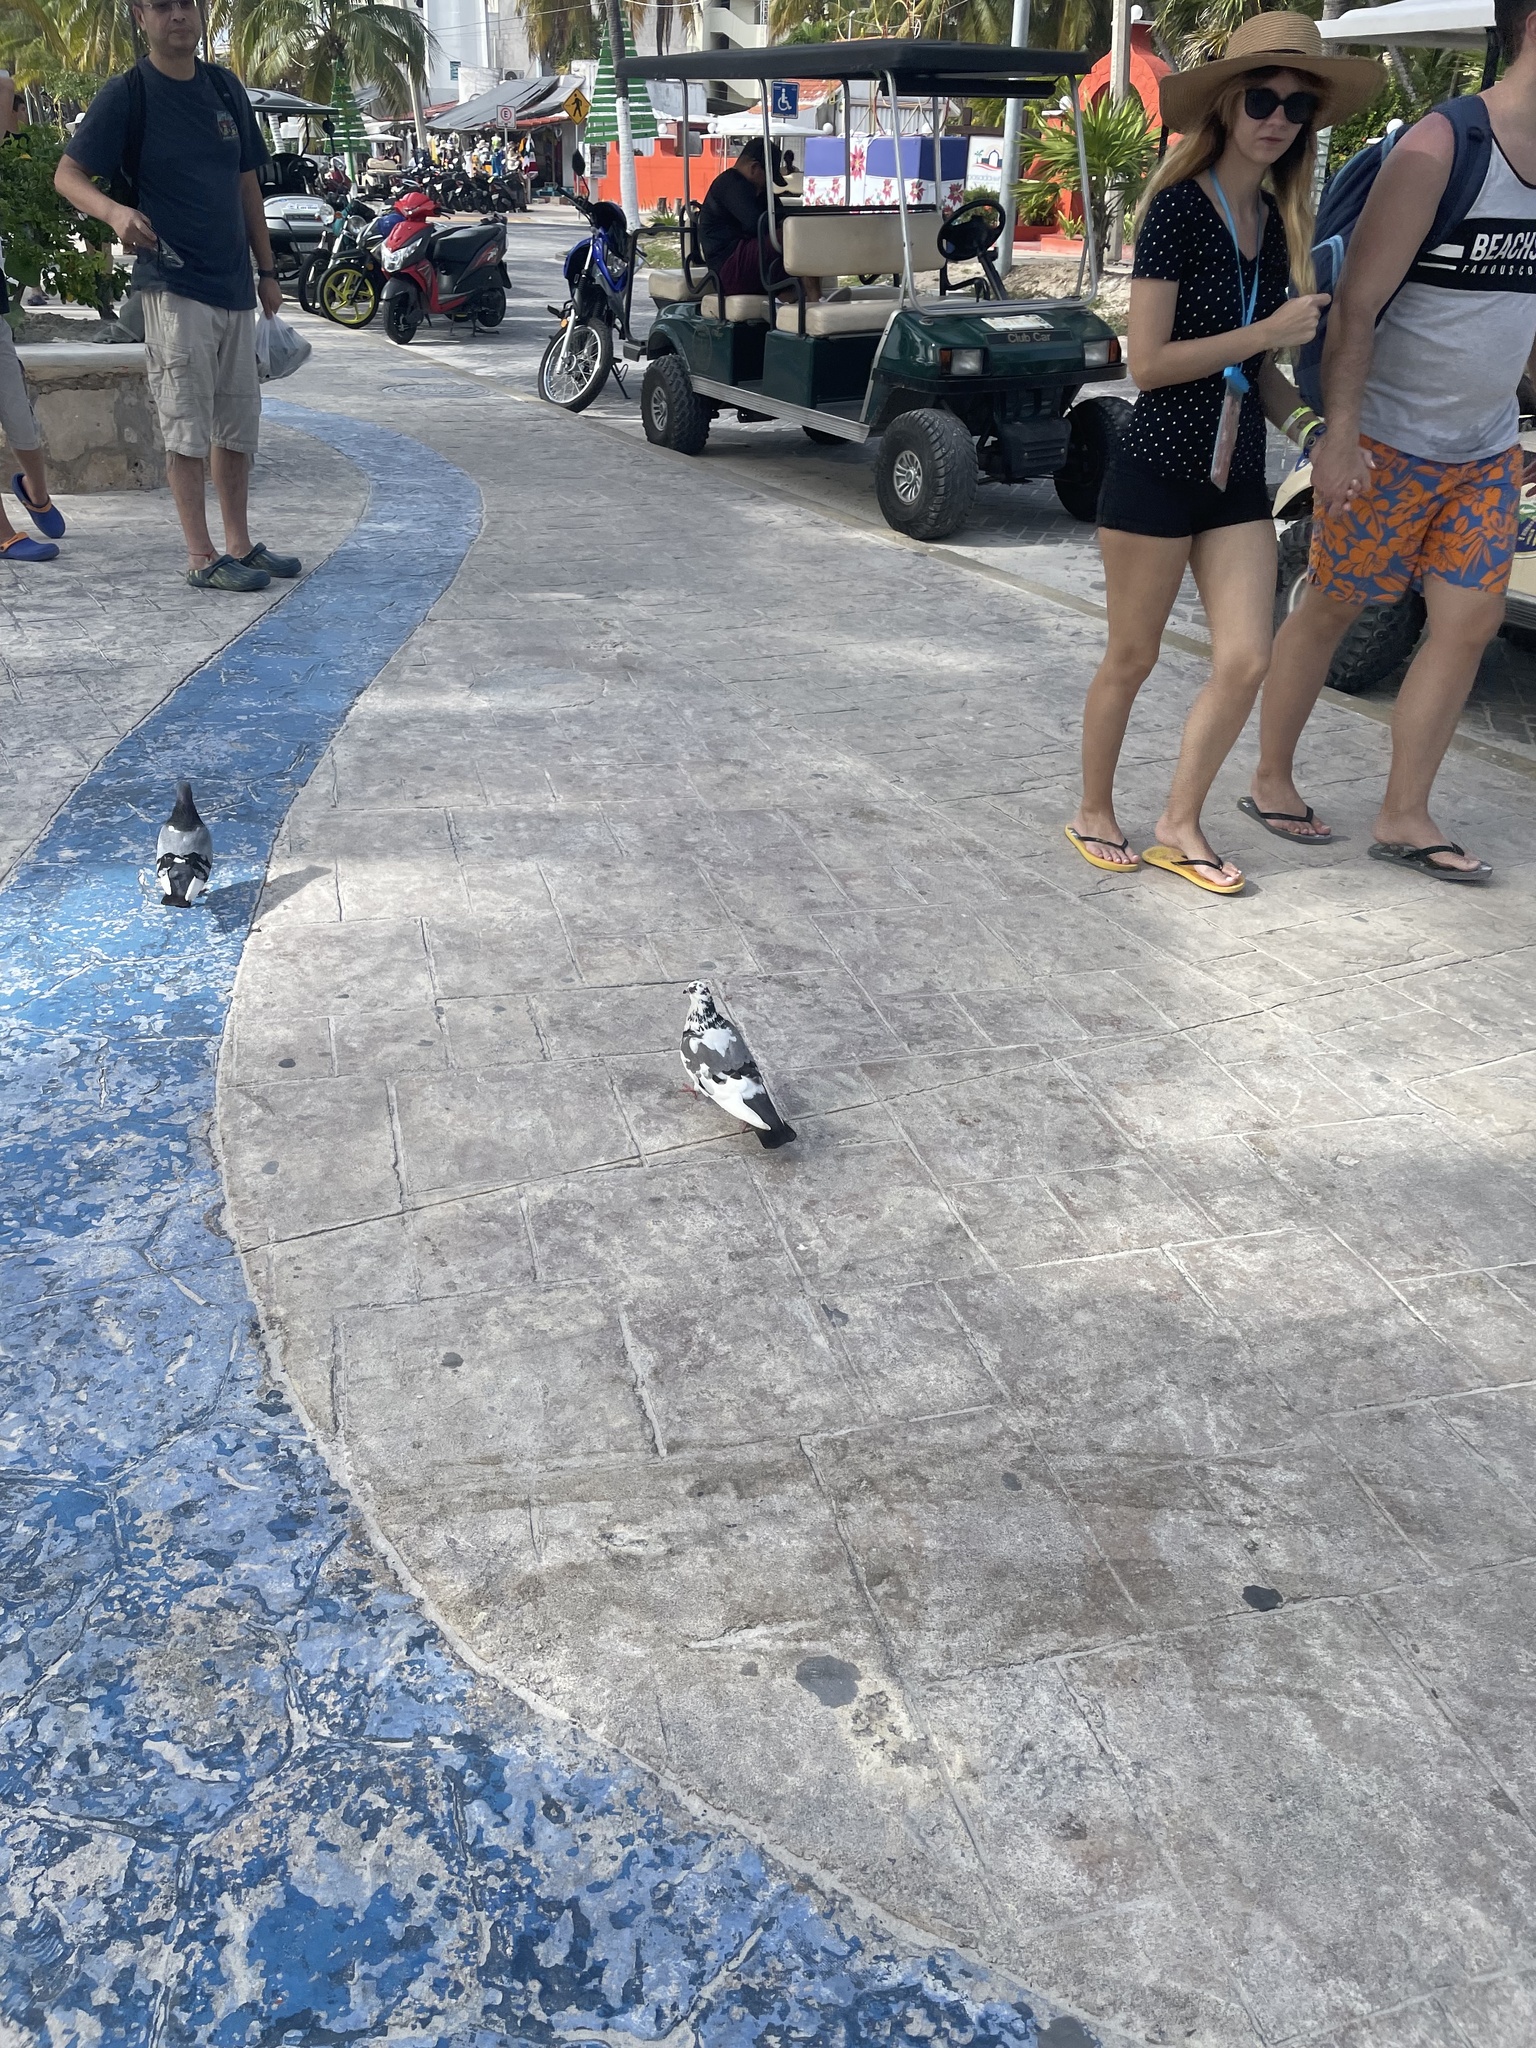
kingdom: Animalia
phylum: Chordata
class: Aves
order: Columbiformes
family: Columbidae
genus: Columba
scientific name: Columba livia
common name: Rock pigeon
